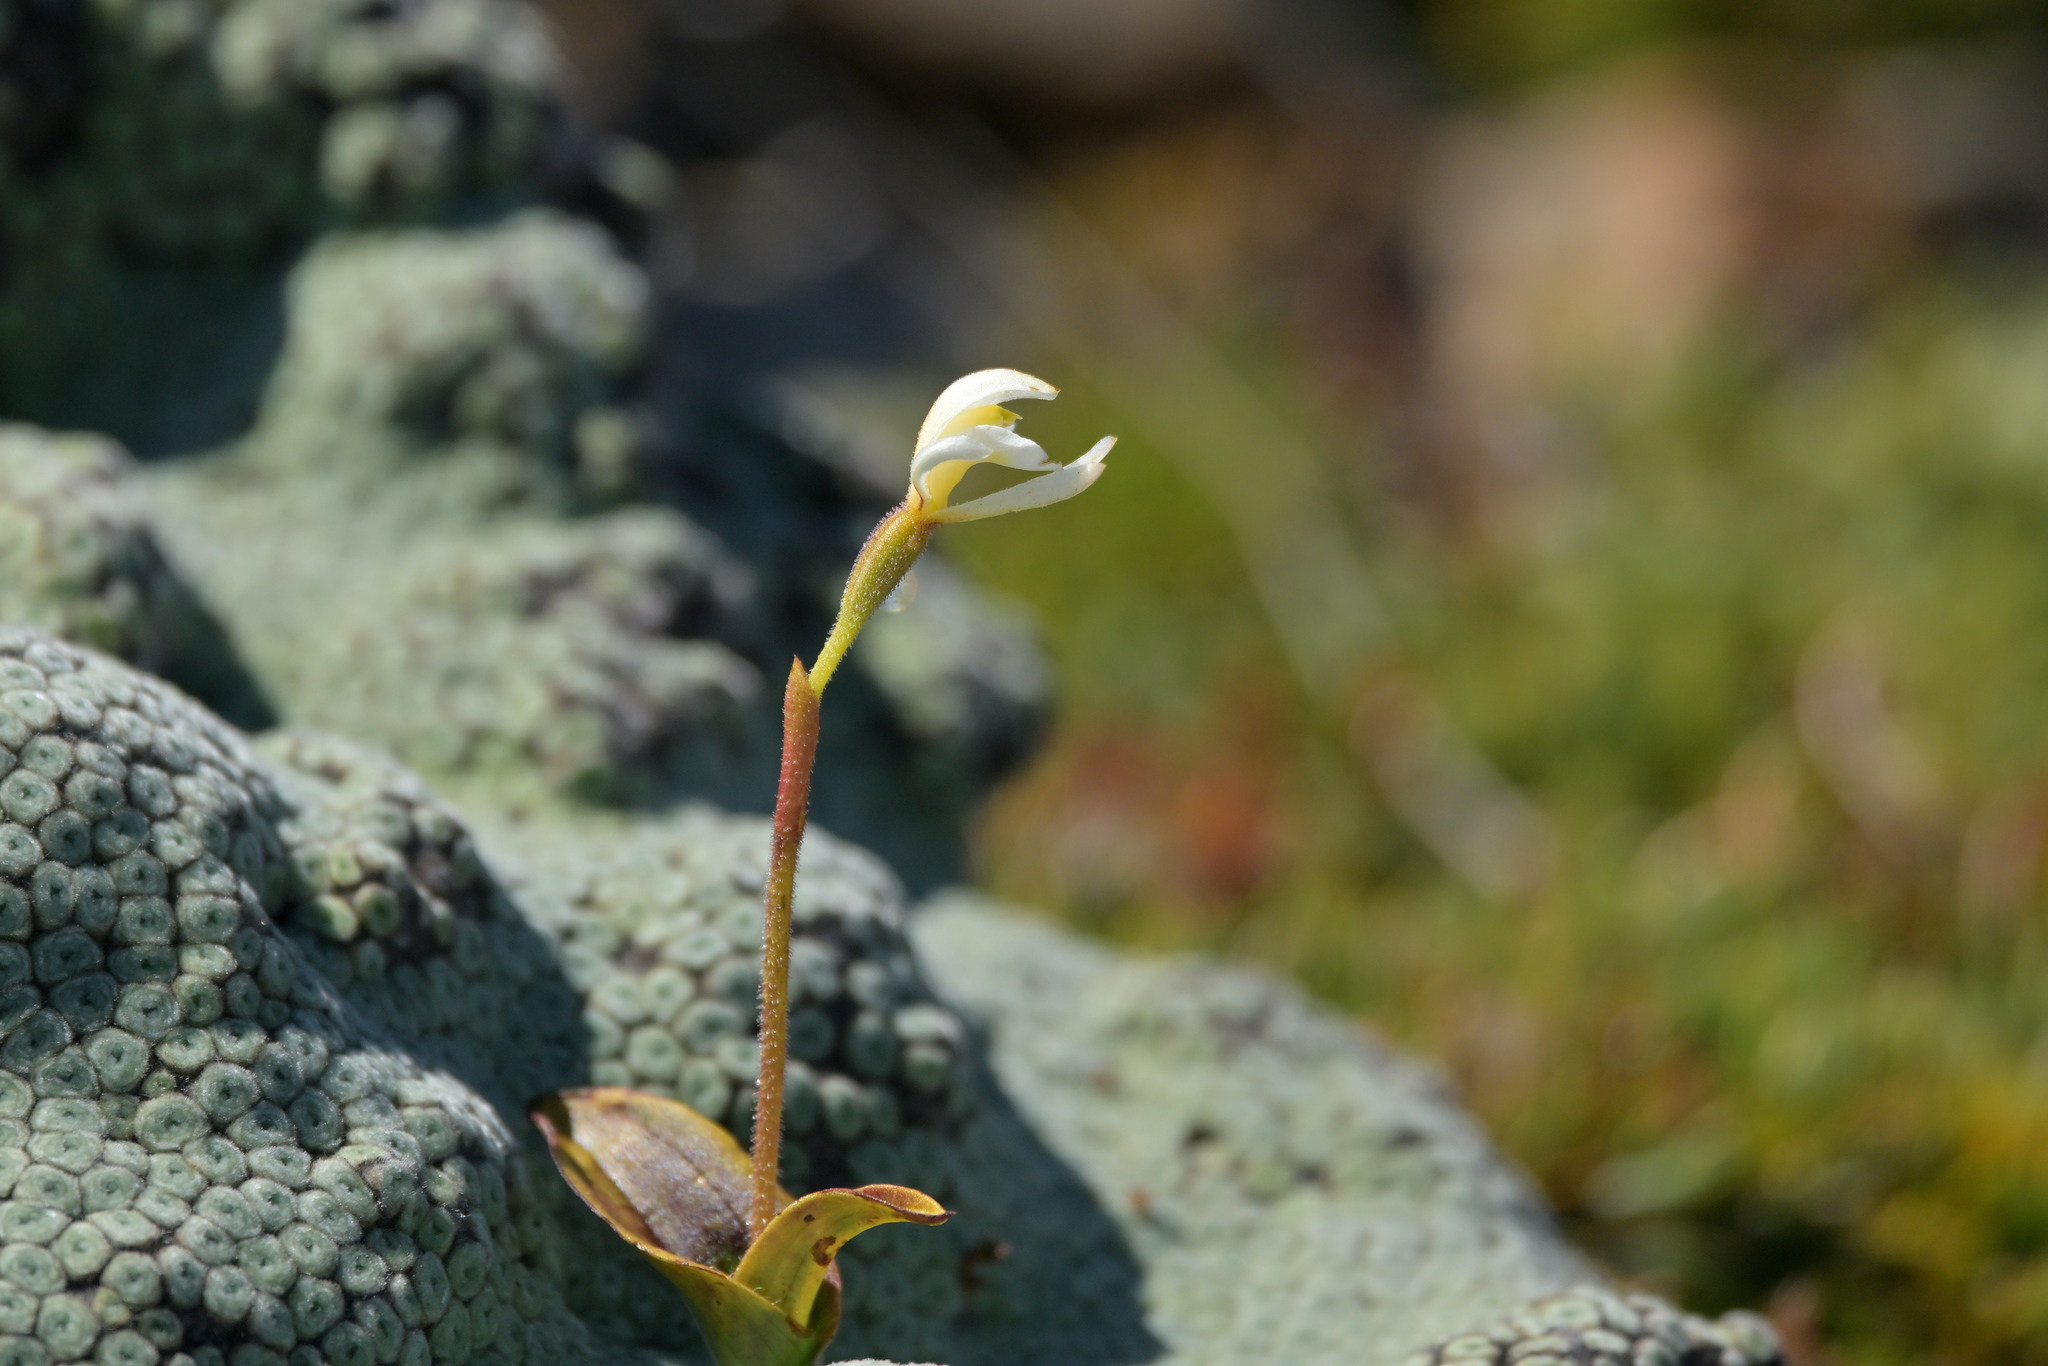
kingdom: Plantae
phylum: Tracheophyta
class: Liliopsida
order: Asparagales
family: Orchidaceae
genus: Aporostylis
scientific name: Aporostylis bifolia
